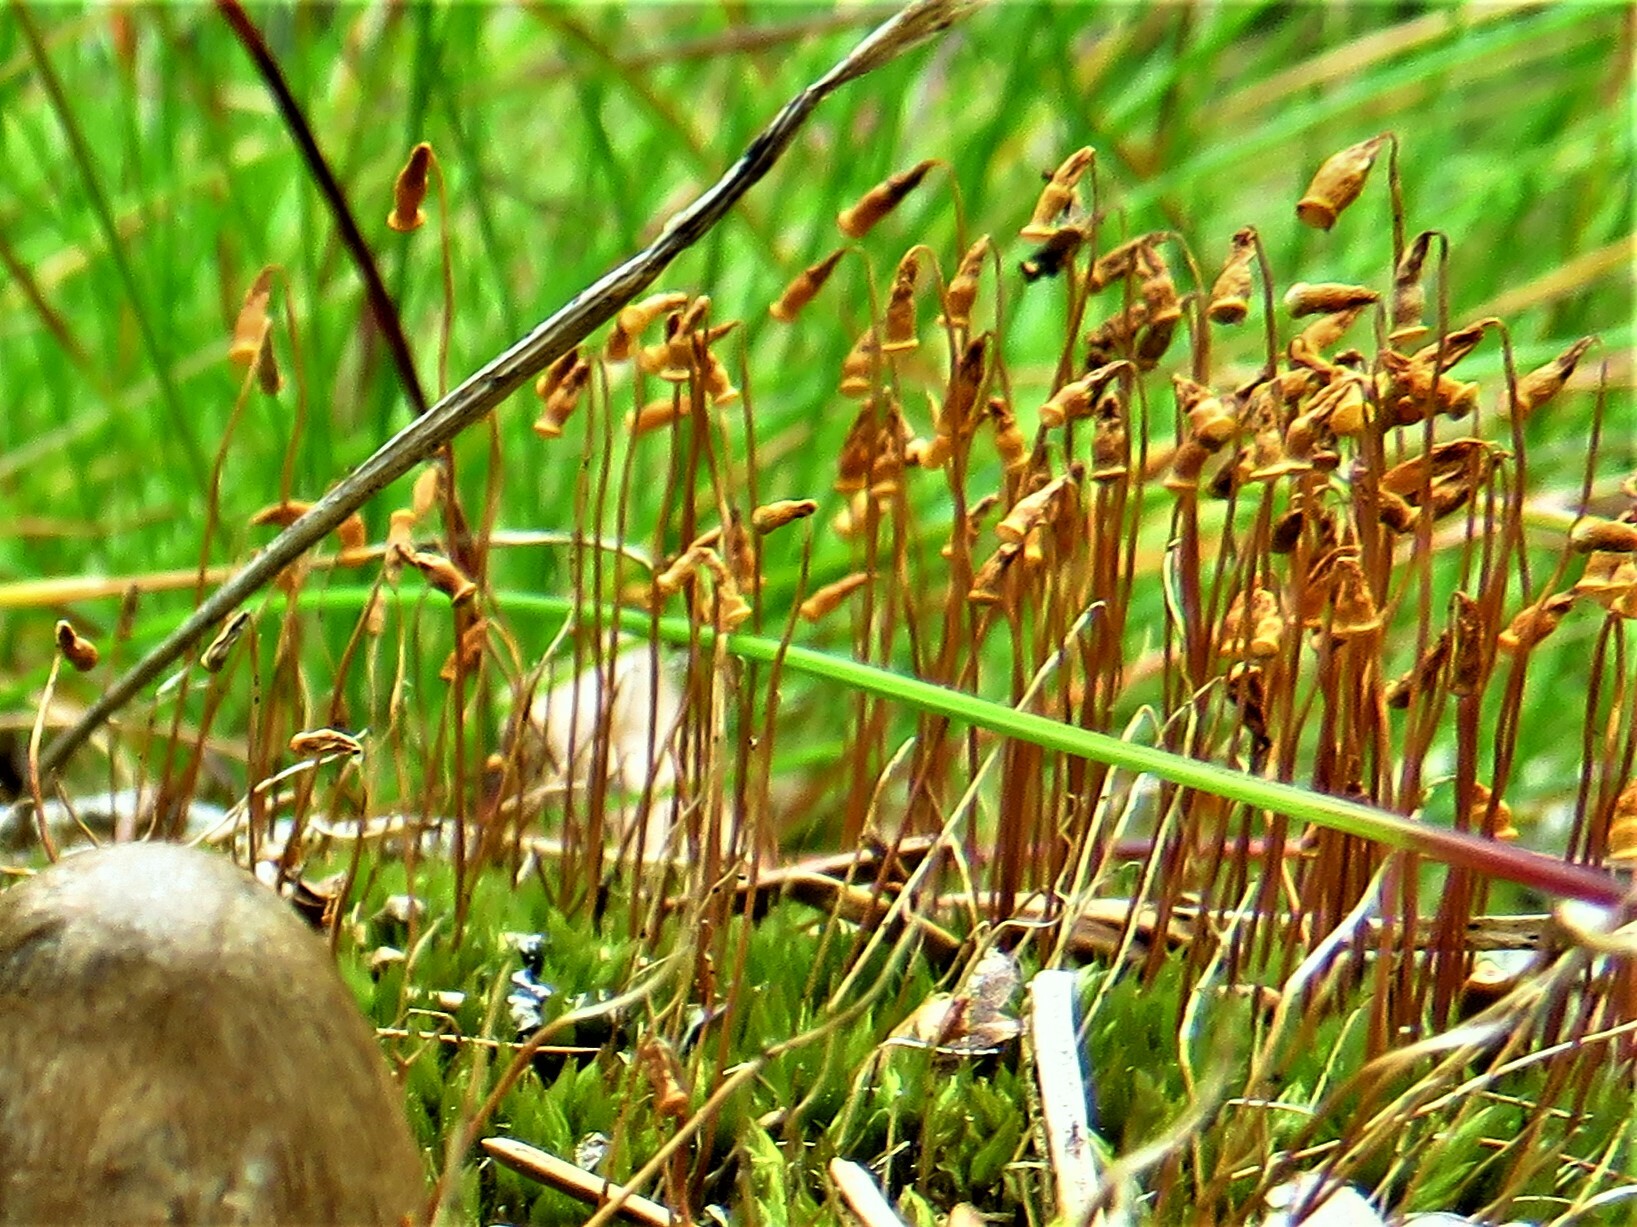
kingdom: Plantae
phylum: Bryophyta
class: Bryopsida
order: Bryales
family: Mniaceae
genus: Pohlia
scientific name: Pohlia nutans
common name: Nodding thread-moss
